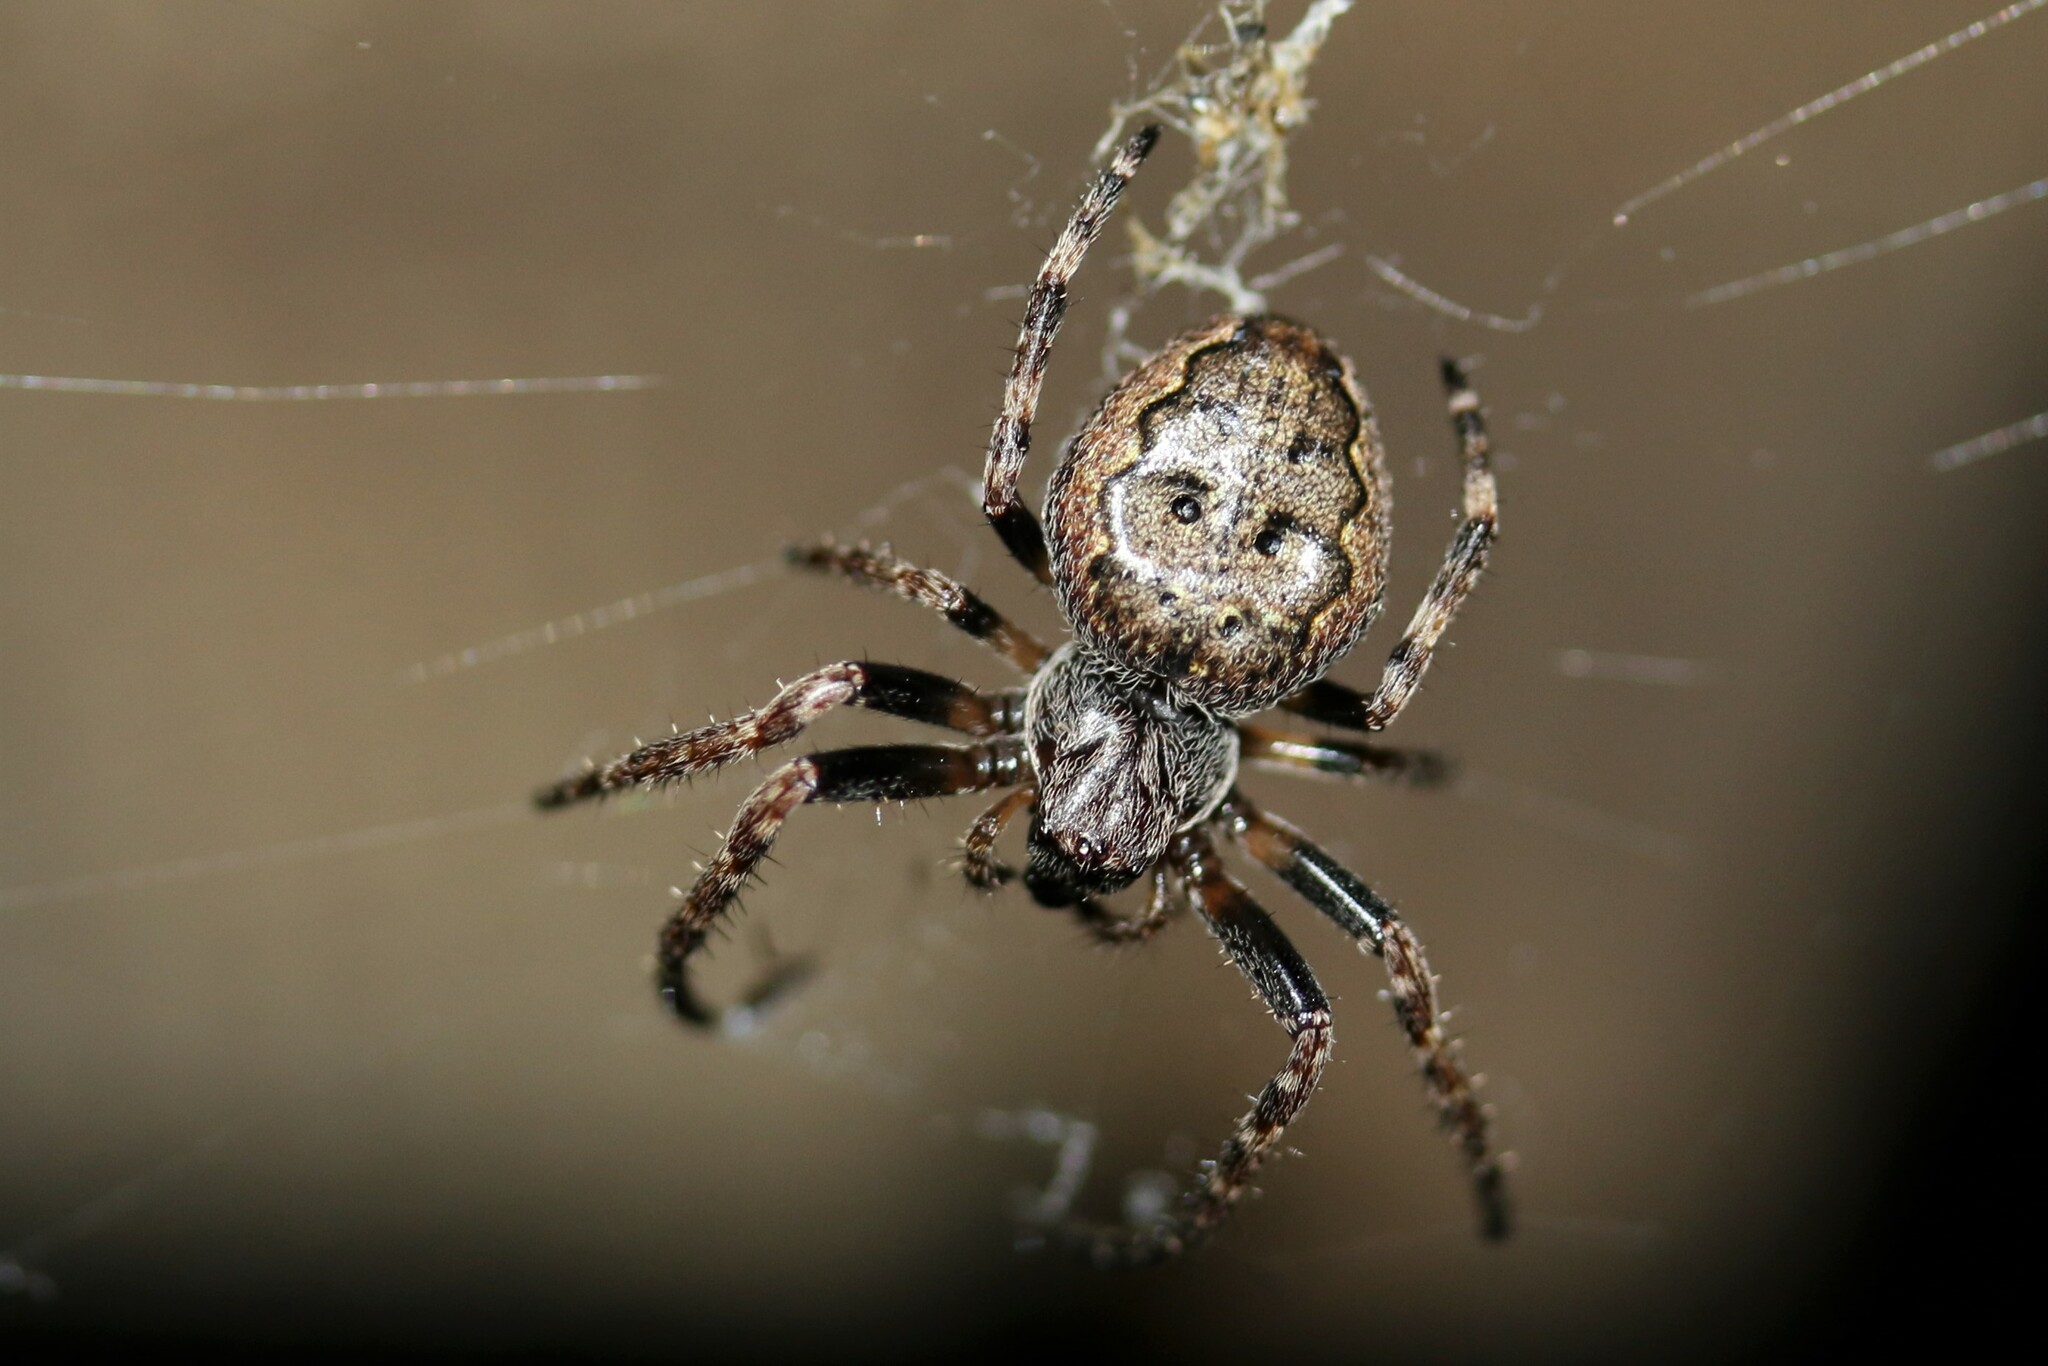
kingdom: Animalia
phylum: Arthropoda
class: Arachnida
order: Araneae
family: Araneidae
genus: Nuctenea
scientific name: Nuctenea umbratica
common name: Toad spider
